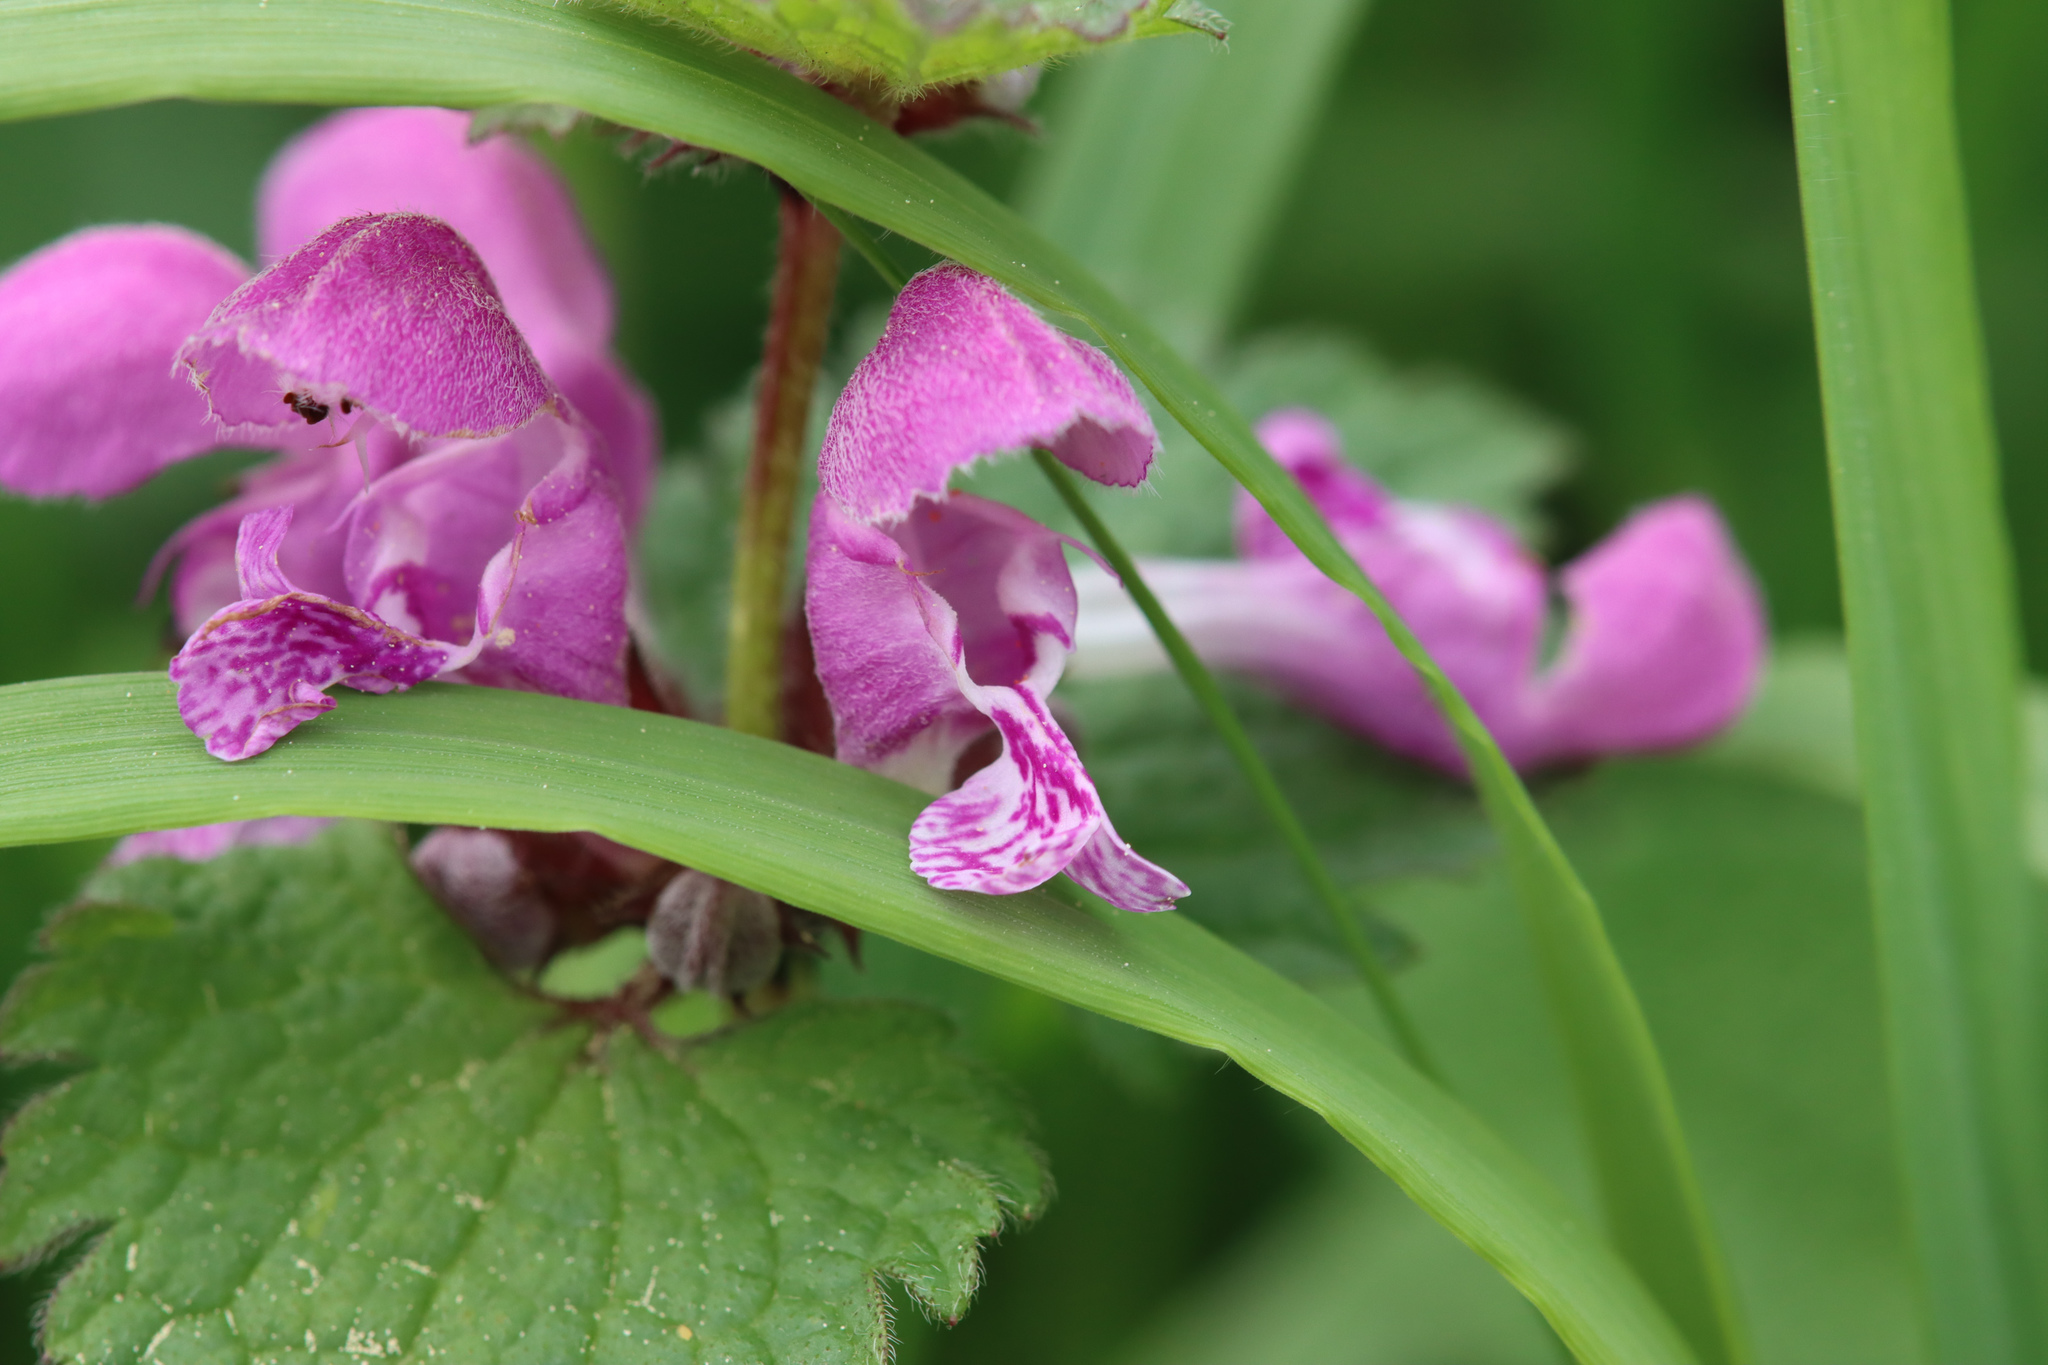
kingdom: Plantae
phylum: Tracheophyta
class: Magnoliopsida
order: Lamiales
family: Lamiaceae
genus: Lamium
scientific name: Lamium maculatum
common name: Spotted dead-nettle
